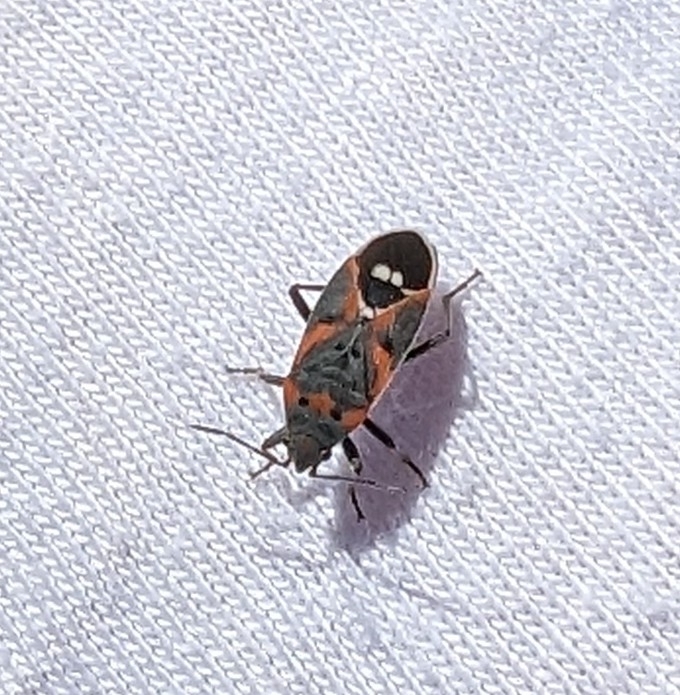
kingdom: Animalia
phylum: Arthropoda
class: Insecta
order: Hemiptera
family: Lygaeidae
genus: Lygaeus
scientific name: Lygaeus kalmii
